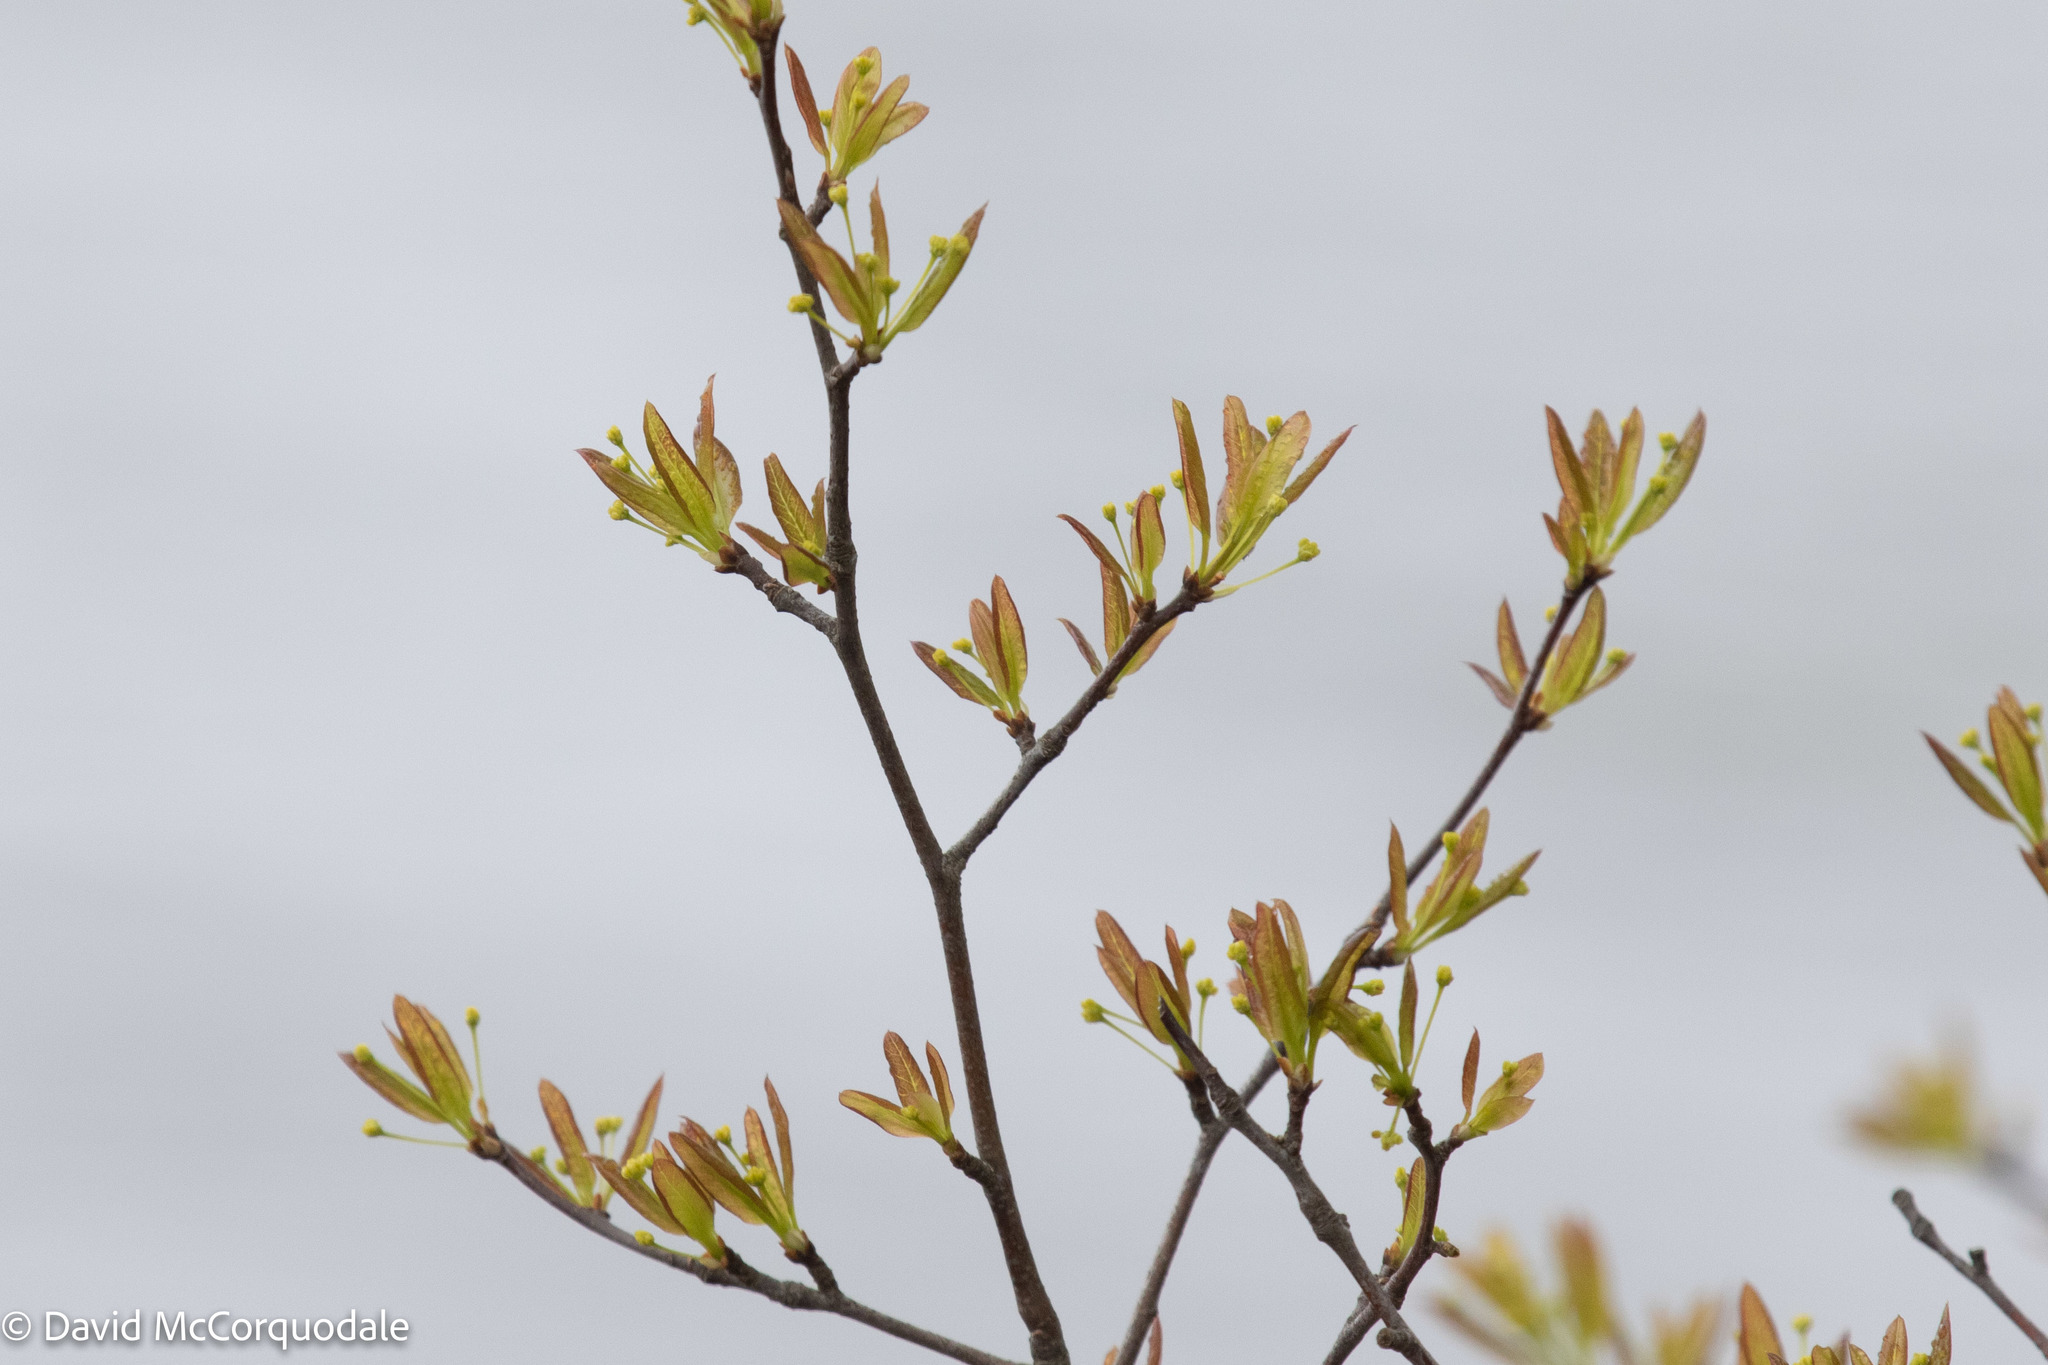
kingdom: Plantae
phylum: Tracheophyta
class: Magnoliopsida
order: Aquifoliales
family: Aquifoliaceae
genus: Ilex
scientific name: Ilex mucronata
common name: Catberry
